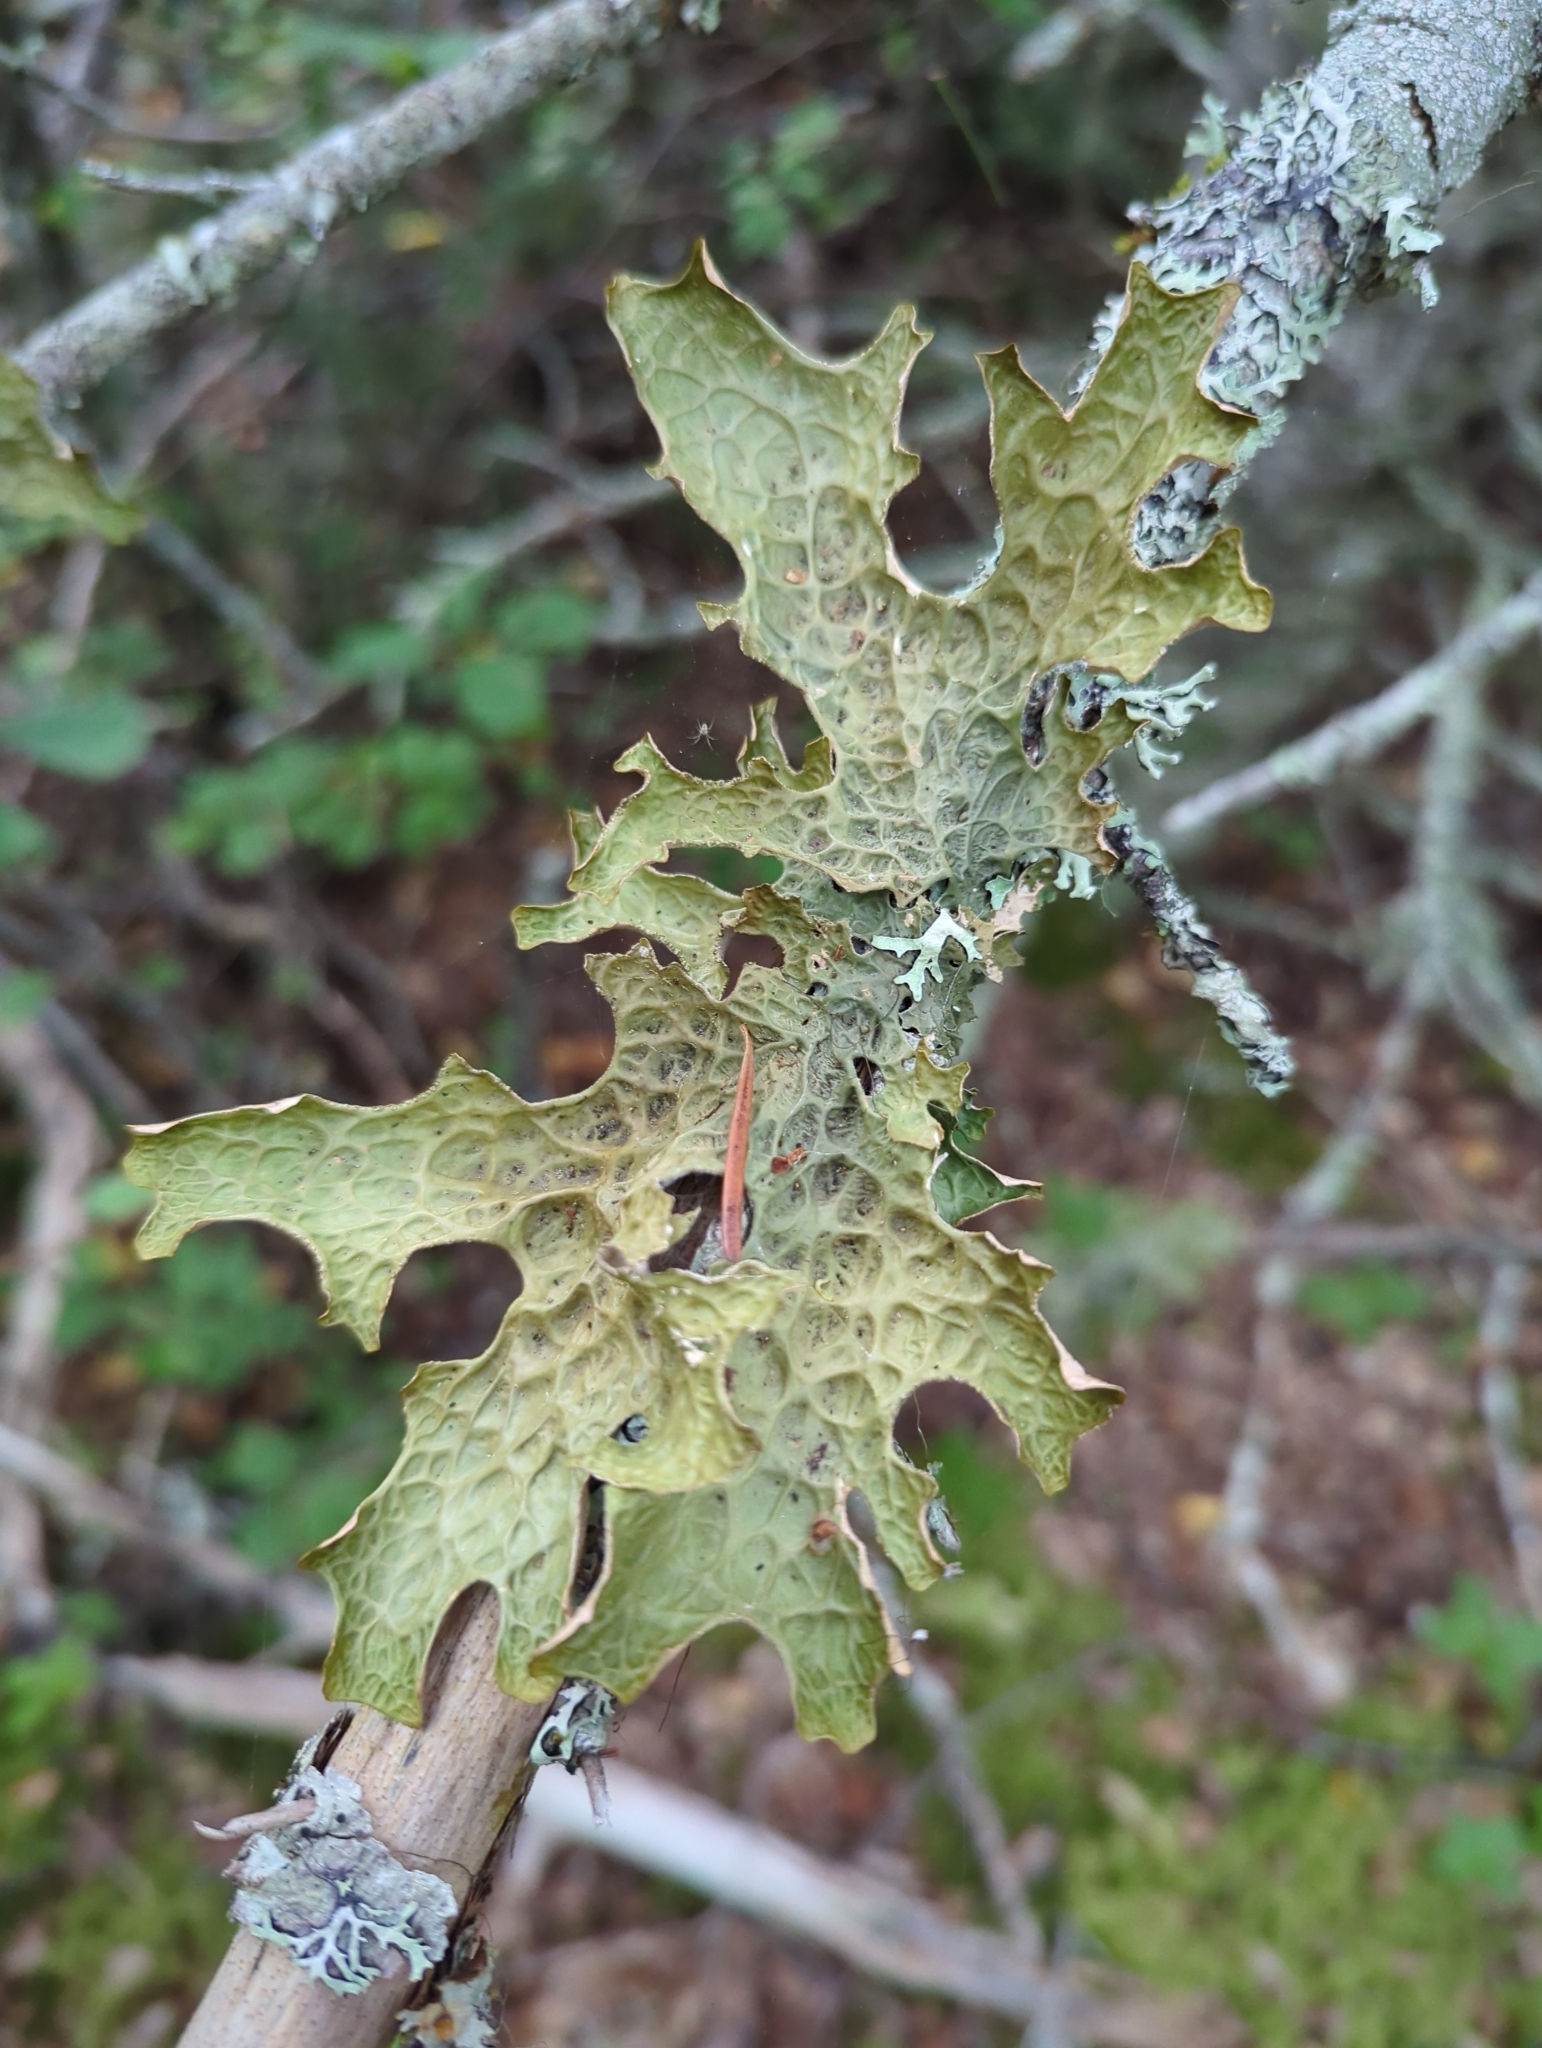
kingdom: Fungi
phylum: Ascomycota
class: Lecanoromycetes
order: Peltigerales
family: Lobariaceae
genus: Lobaria
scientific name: Lobaria pulmonaria
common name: Lungwort
